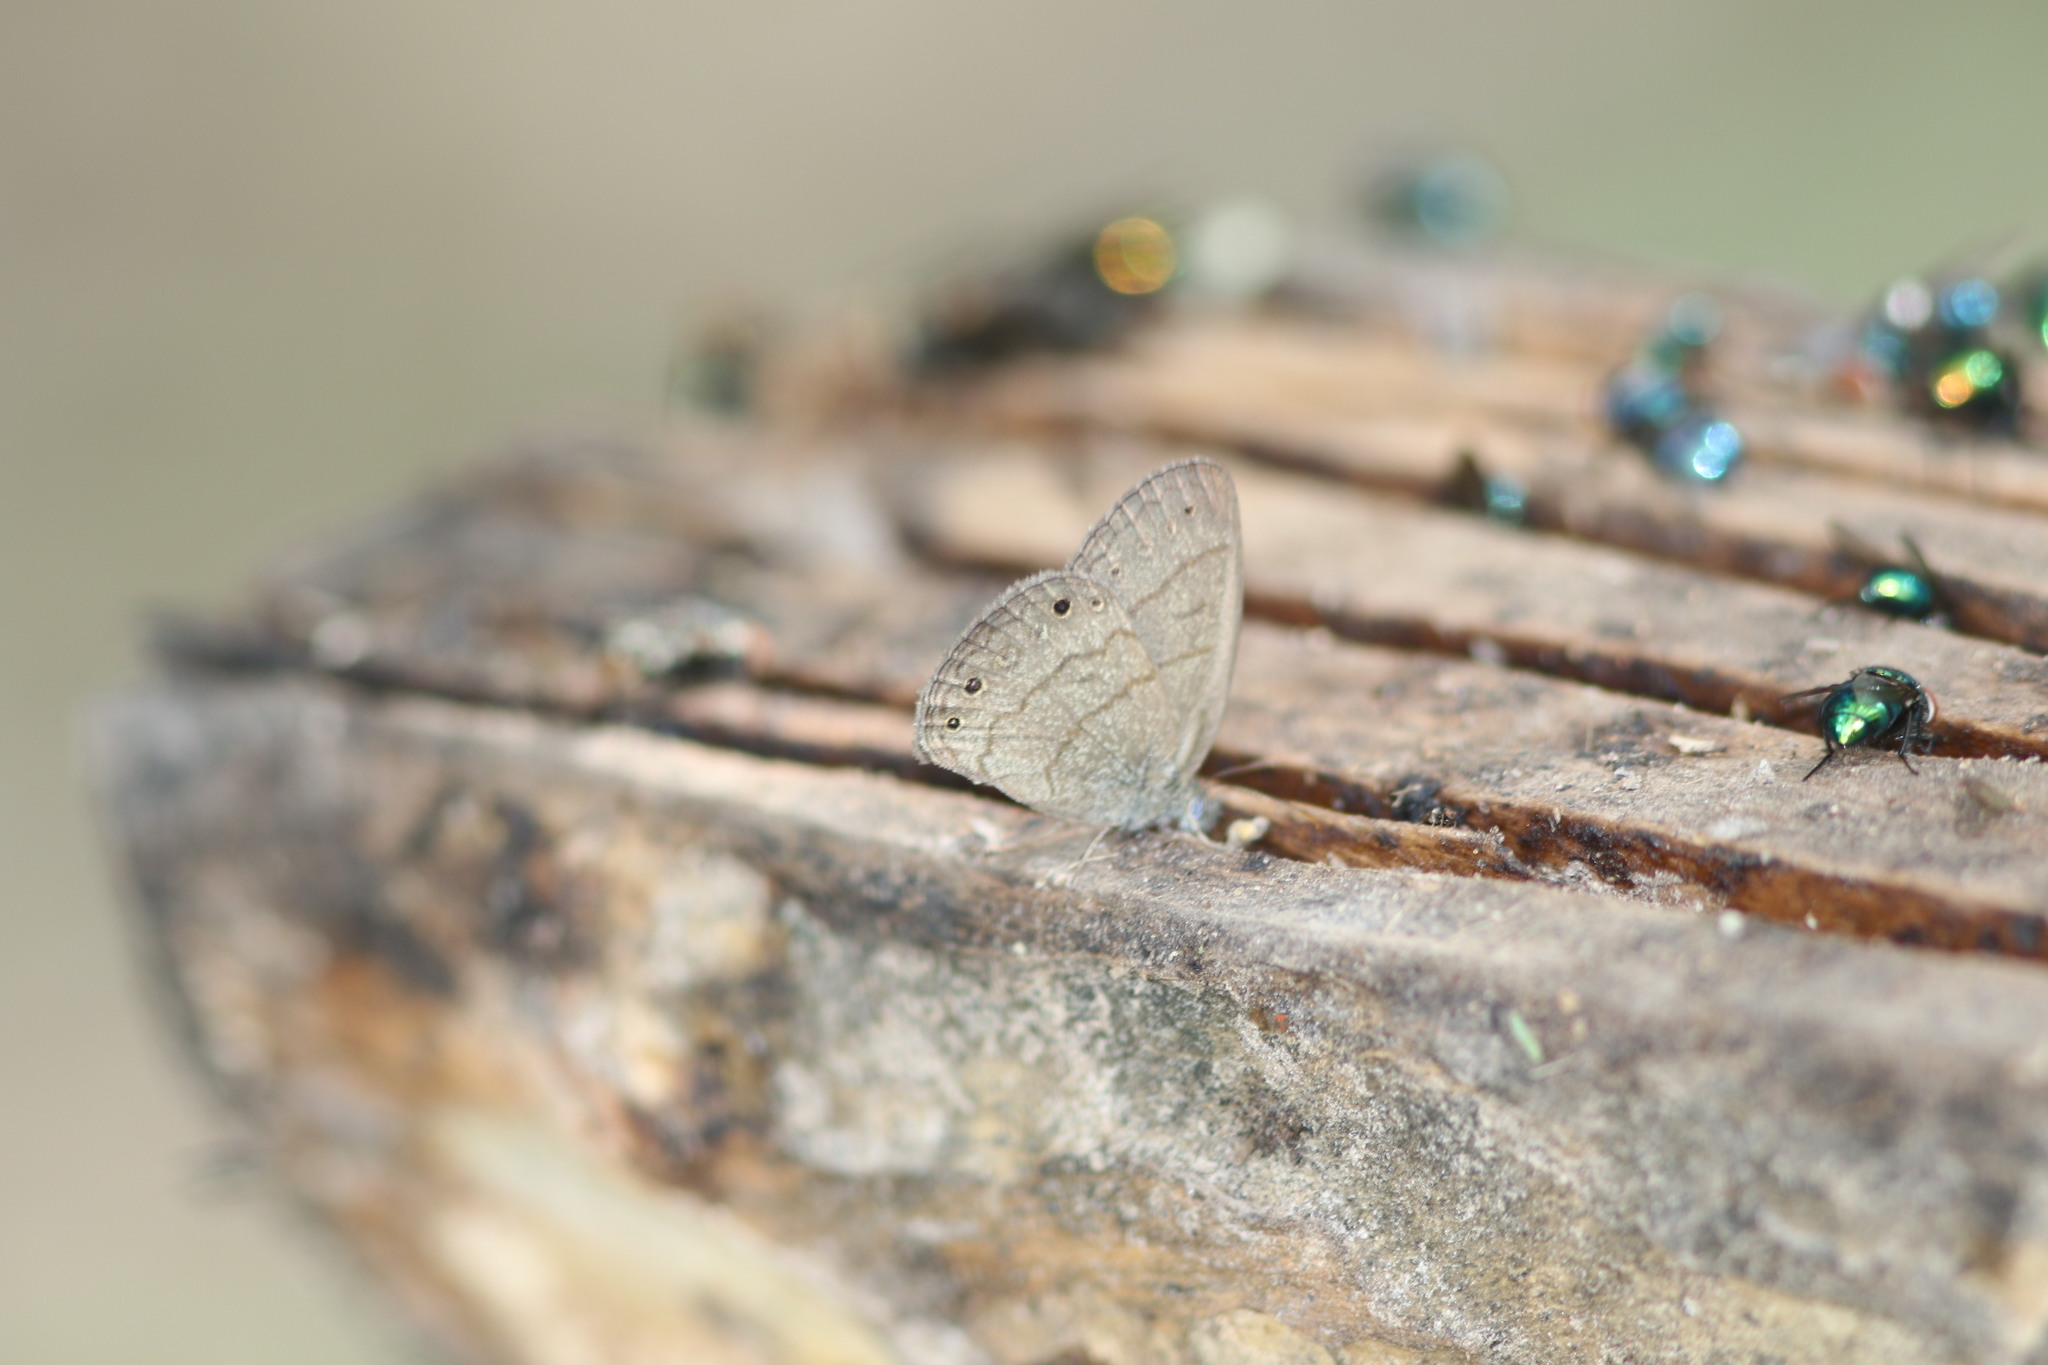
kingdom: Animalia
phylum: Arthropoda
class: Insecta
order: Lepidoptera
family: Nymphalidae
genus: Hermeuptychia
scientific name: Hermeuptychia hermybius
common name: South texas satyr
